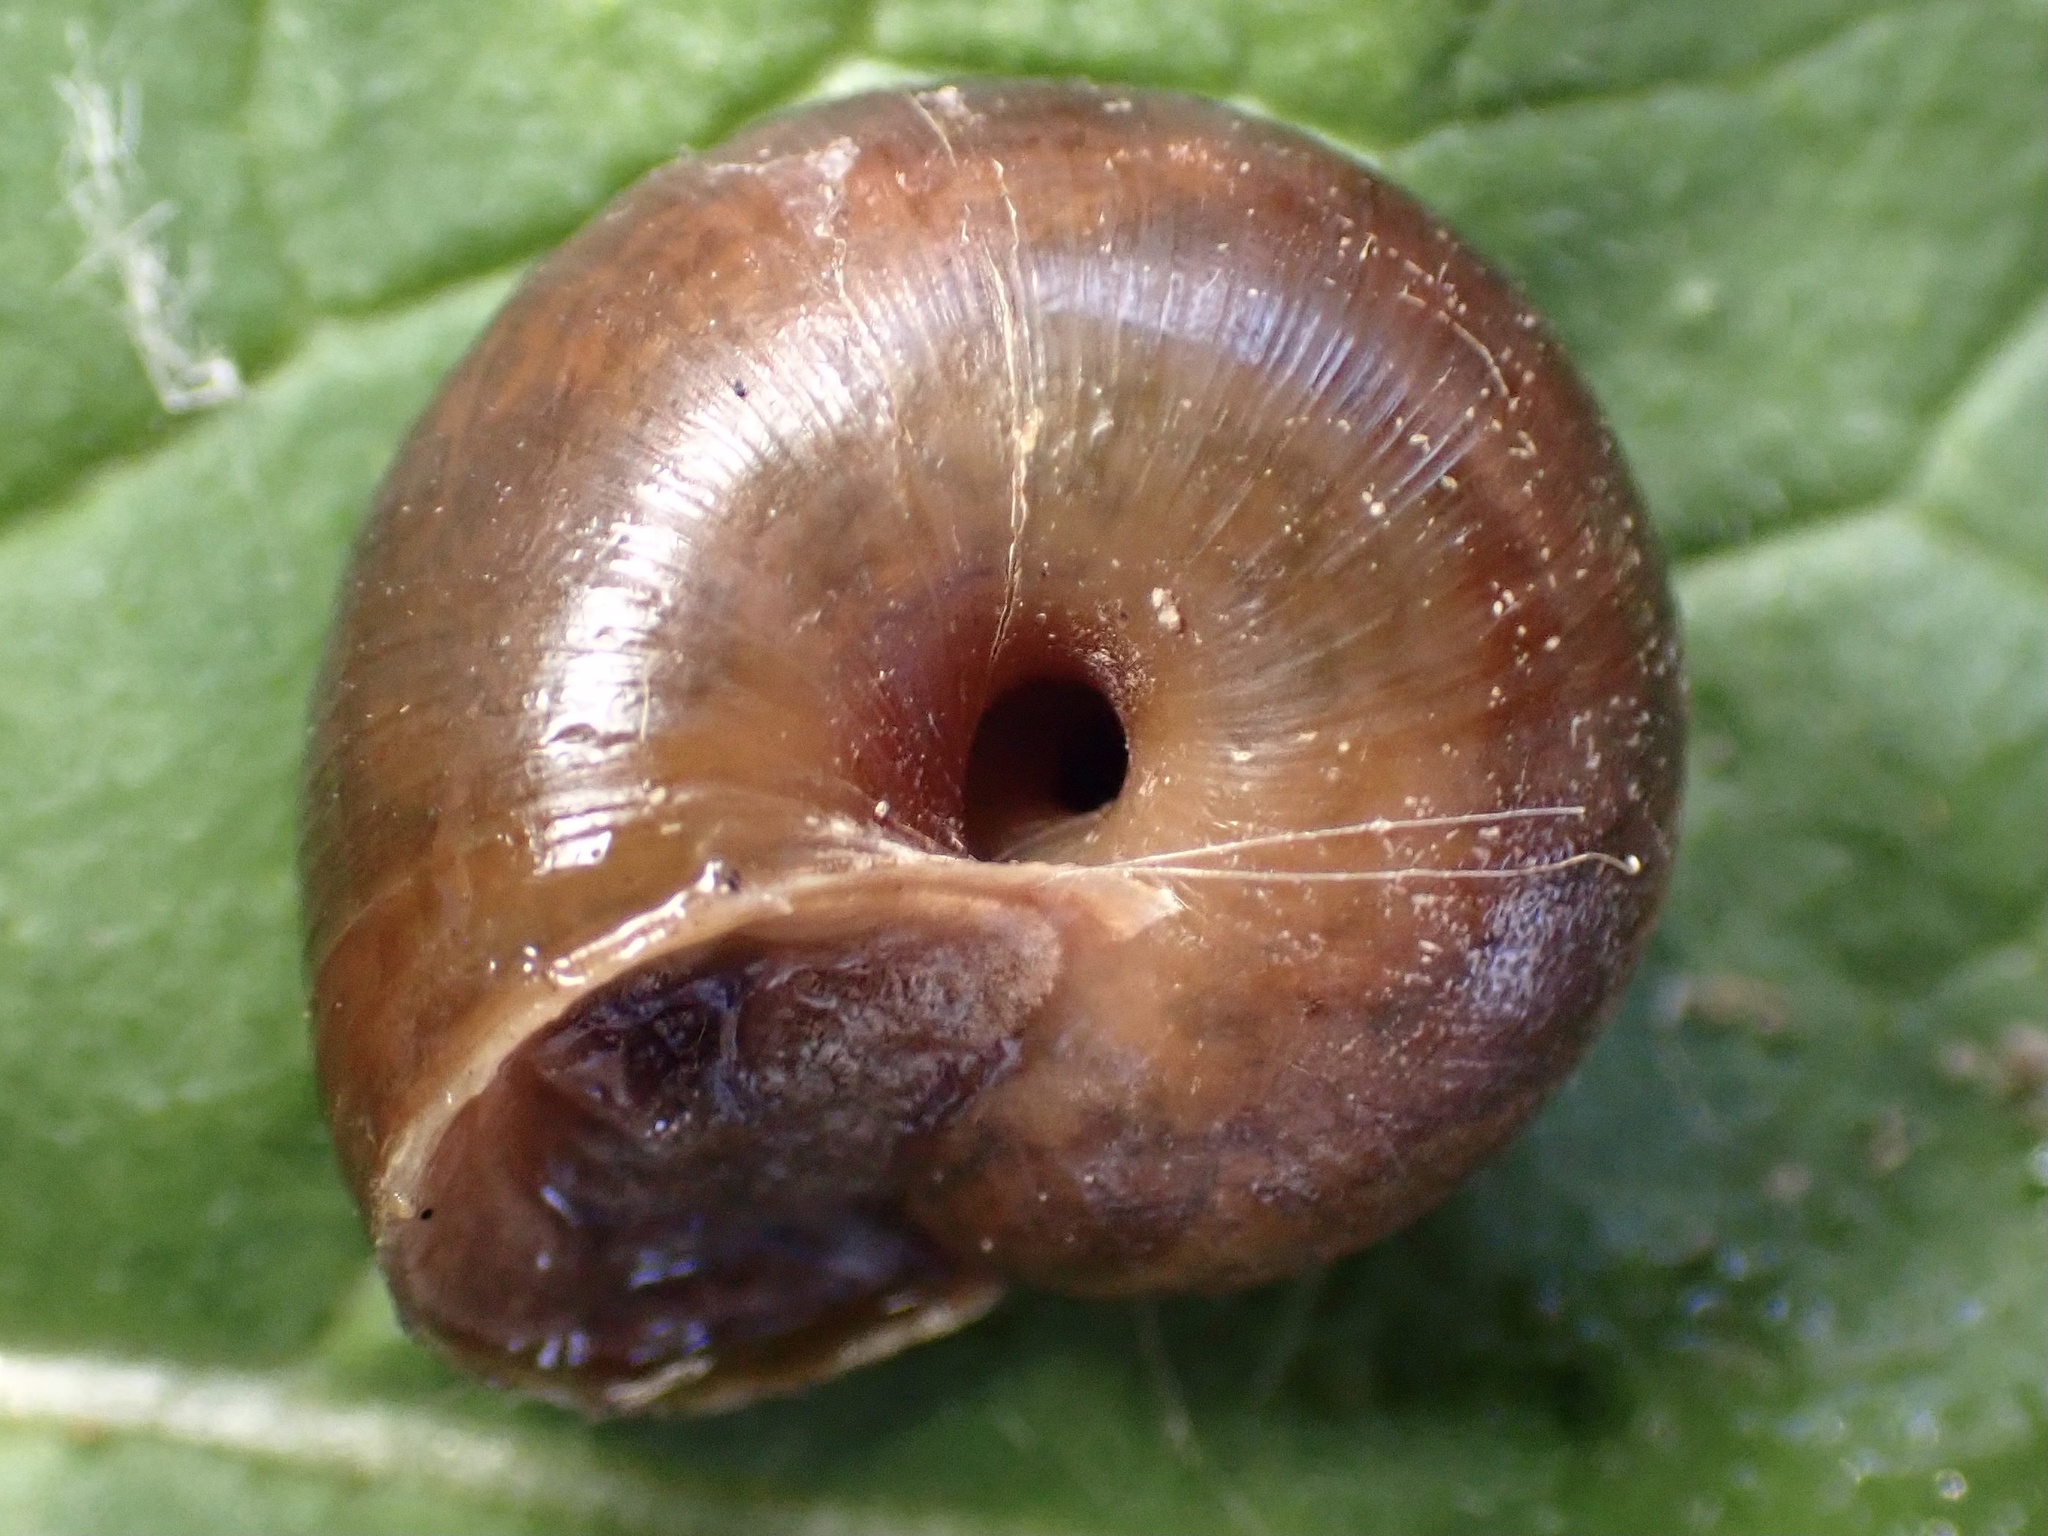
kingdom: Animalia
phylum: Mollusca
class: Gastropoda
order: Stylommatophora
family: Xanthonychidae
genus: Helminthoglypta
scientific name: Helminthoglypta umbilicata
